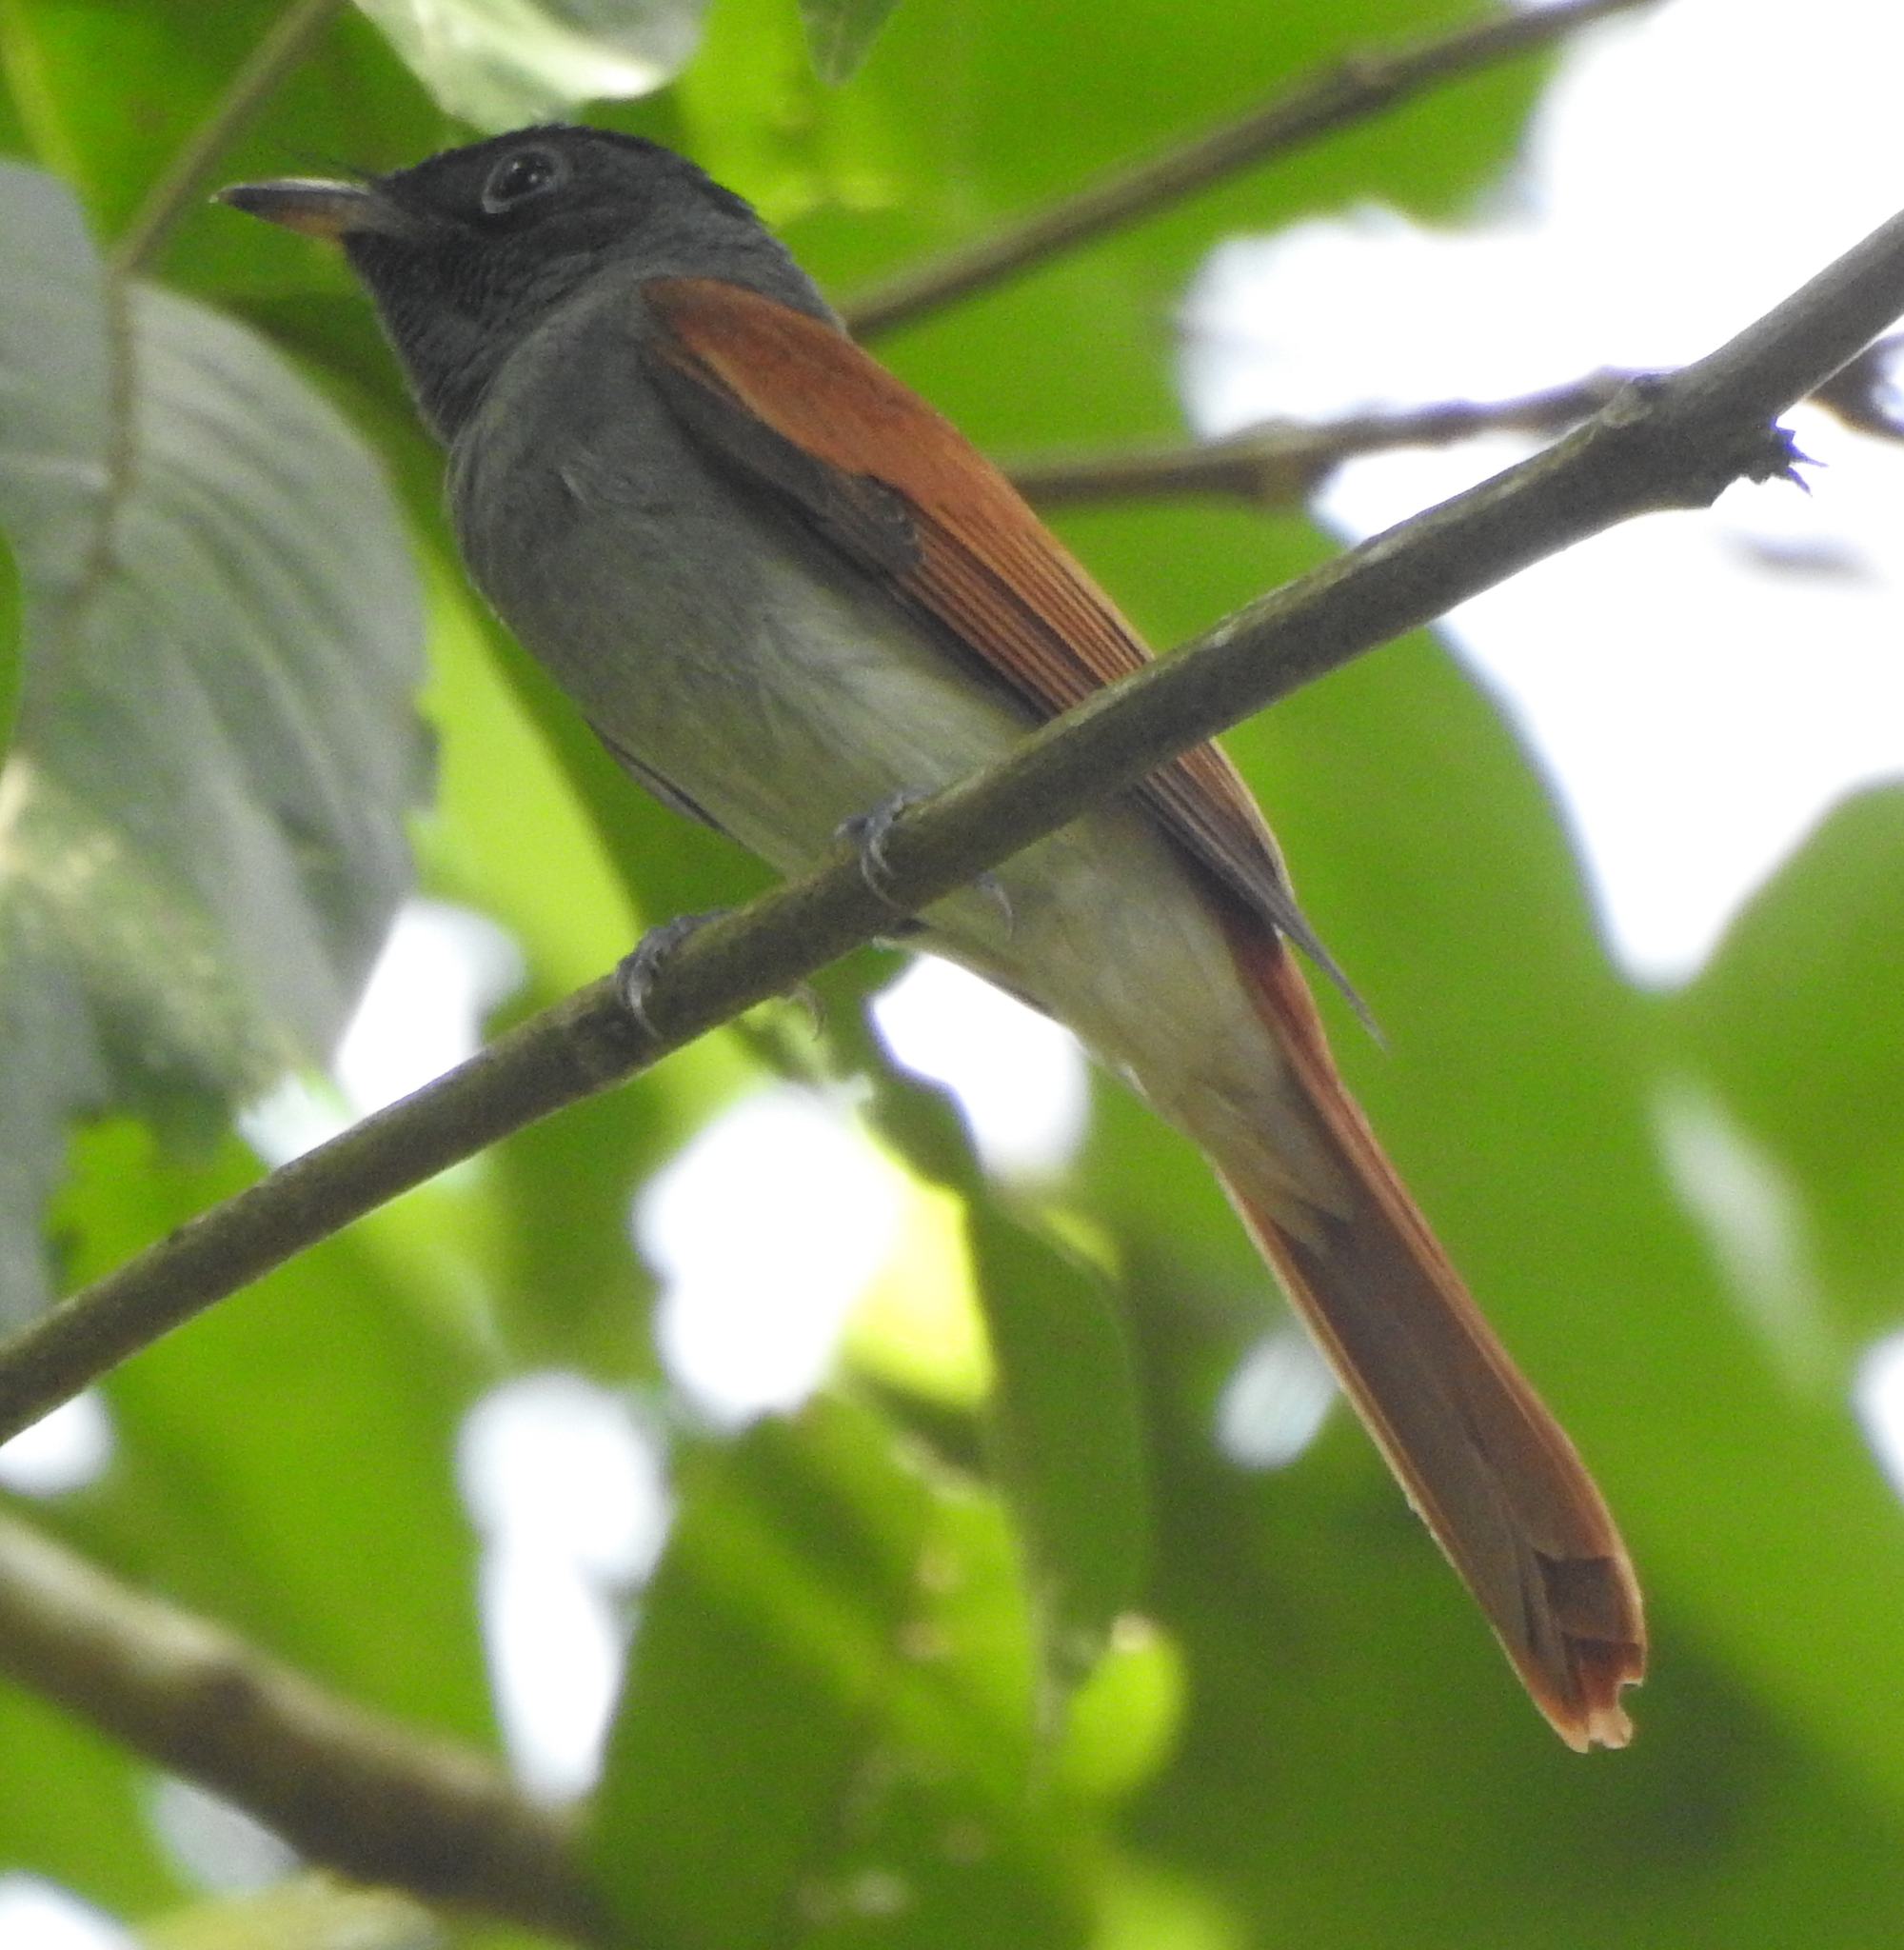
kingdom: Animalia
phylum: Chordata
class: Aves
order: Passeriformes
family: Monarchidae
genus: Terpsiphone
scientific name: Terpsiphone paradisi
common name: Indian paradise flycatcher
